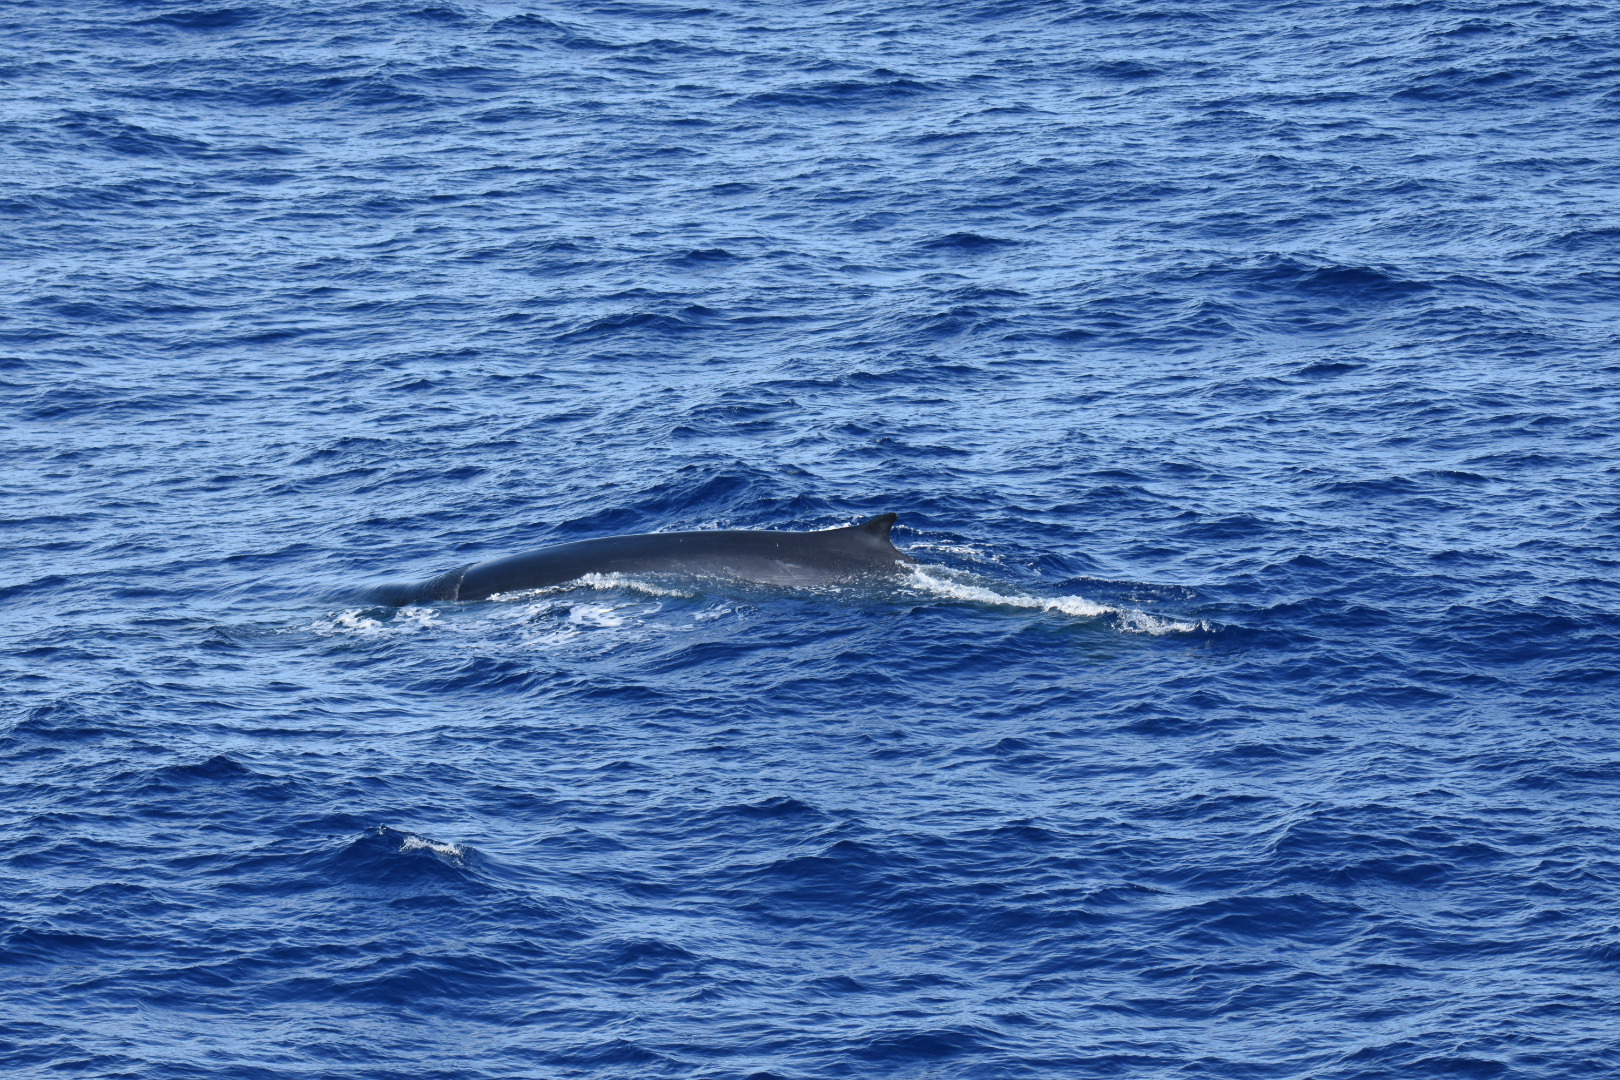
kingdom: Animalia
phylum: Chordata
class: Mammalia
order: Cetacea
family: Balaenopteridae
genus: Balaenoptera
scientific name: Balaenoptera physalus
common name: Fin whale
